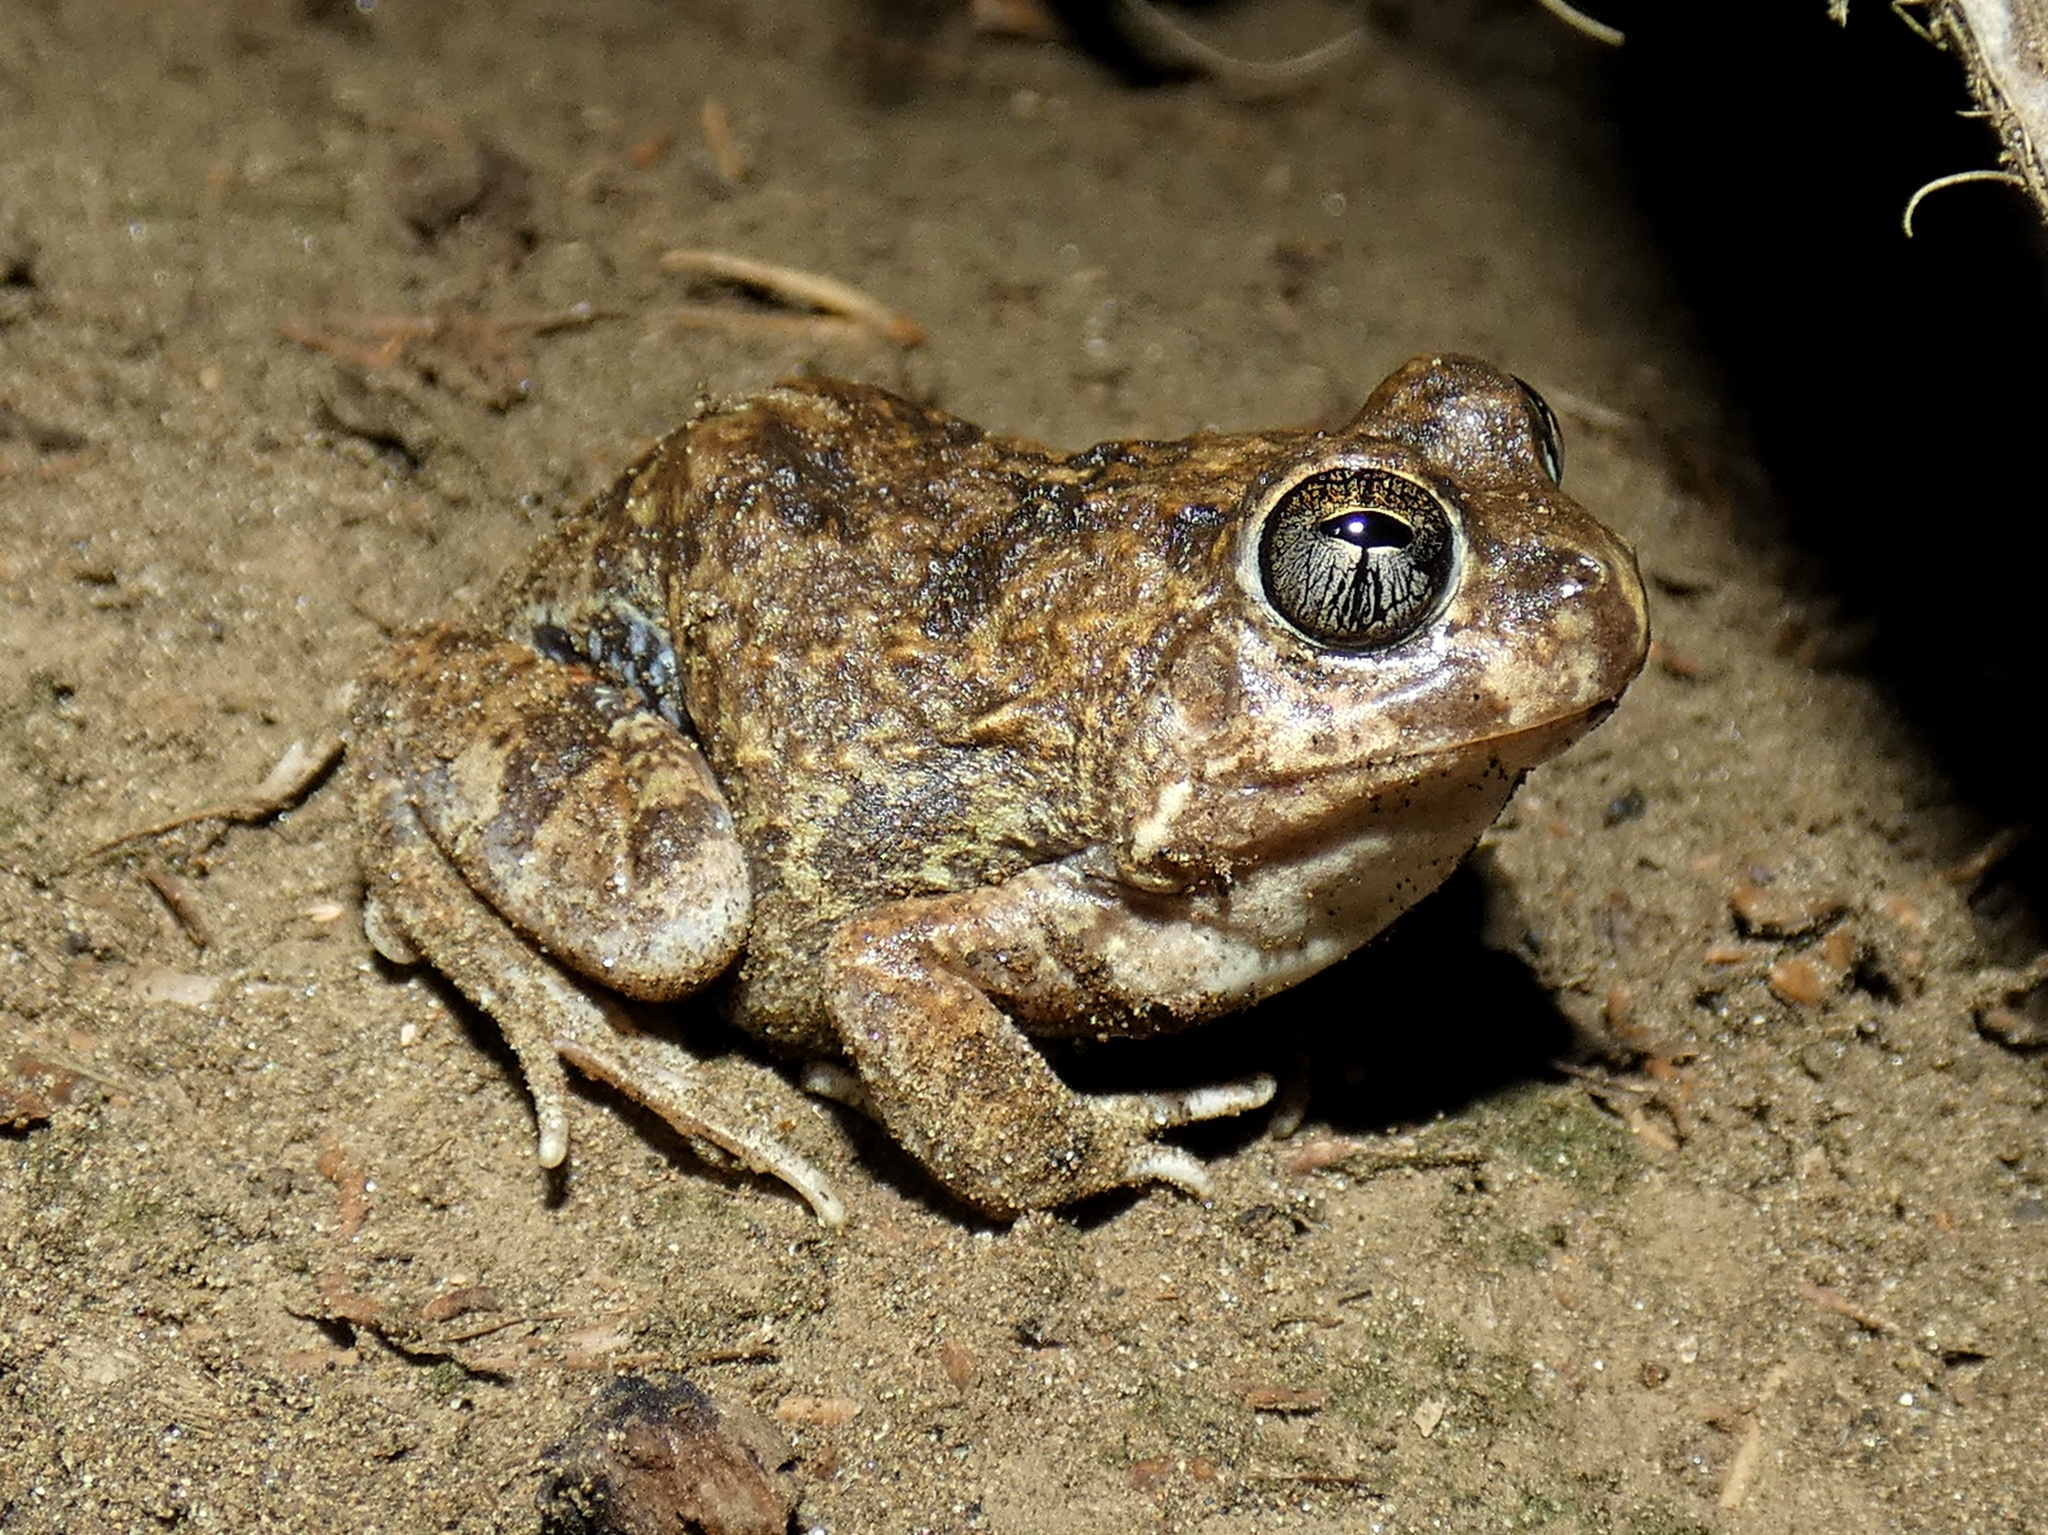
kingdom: Animalia
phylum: Chordata
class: Amphibia
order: Anura
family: Leptodactylidae
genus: Pleurodema
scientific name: Pleurodema brachyops
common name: Colombian four-eyed frog
